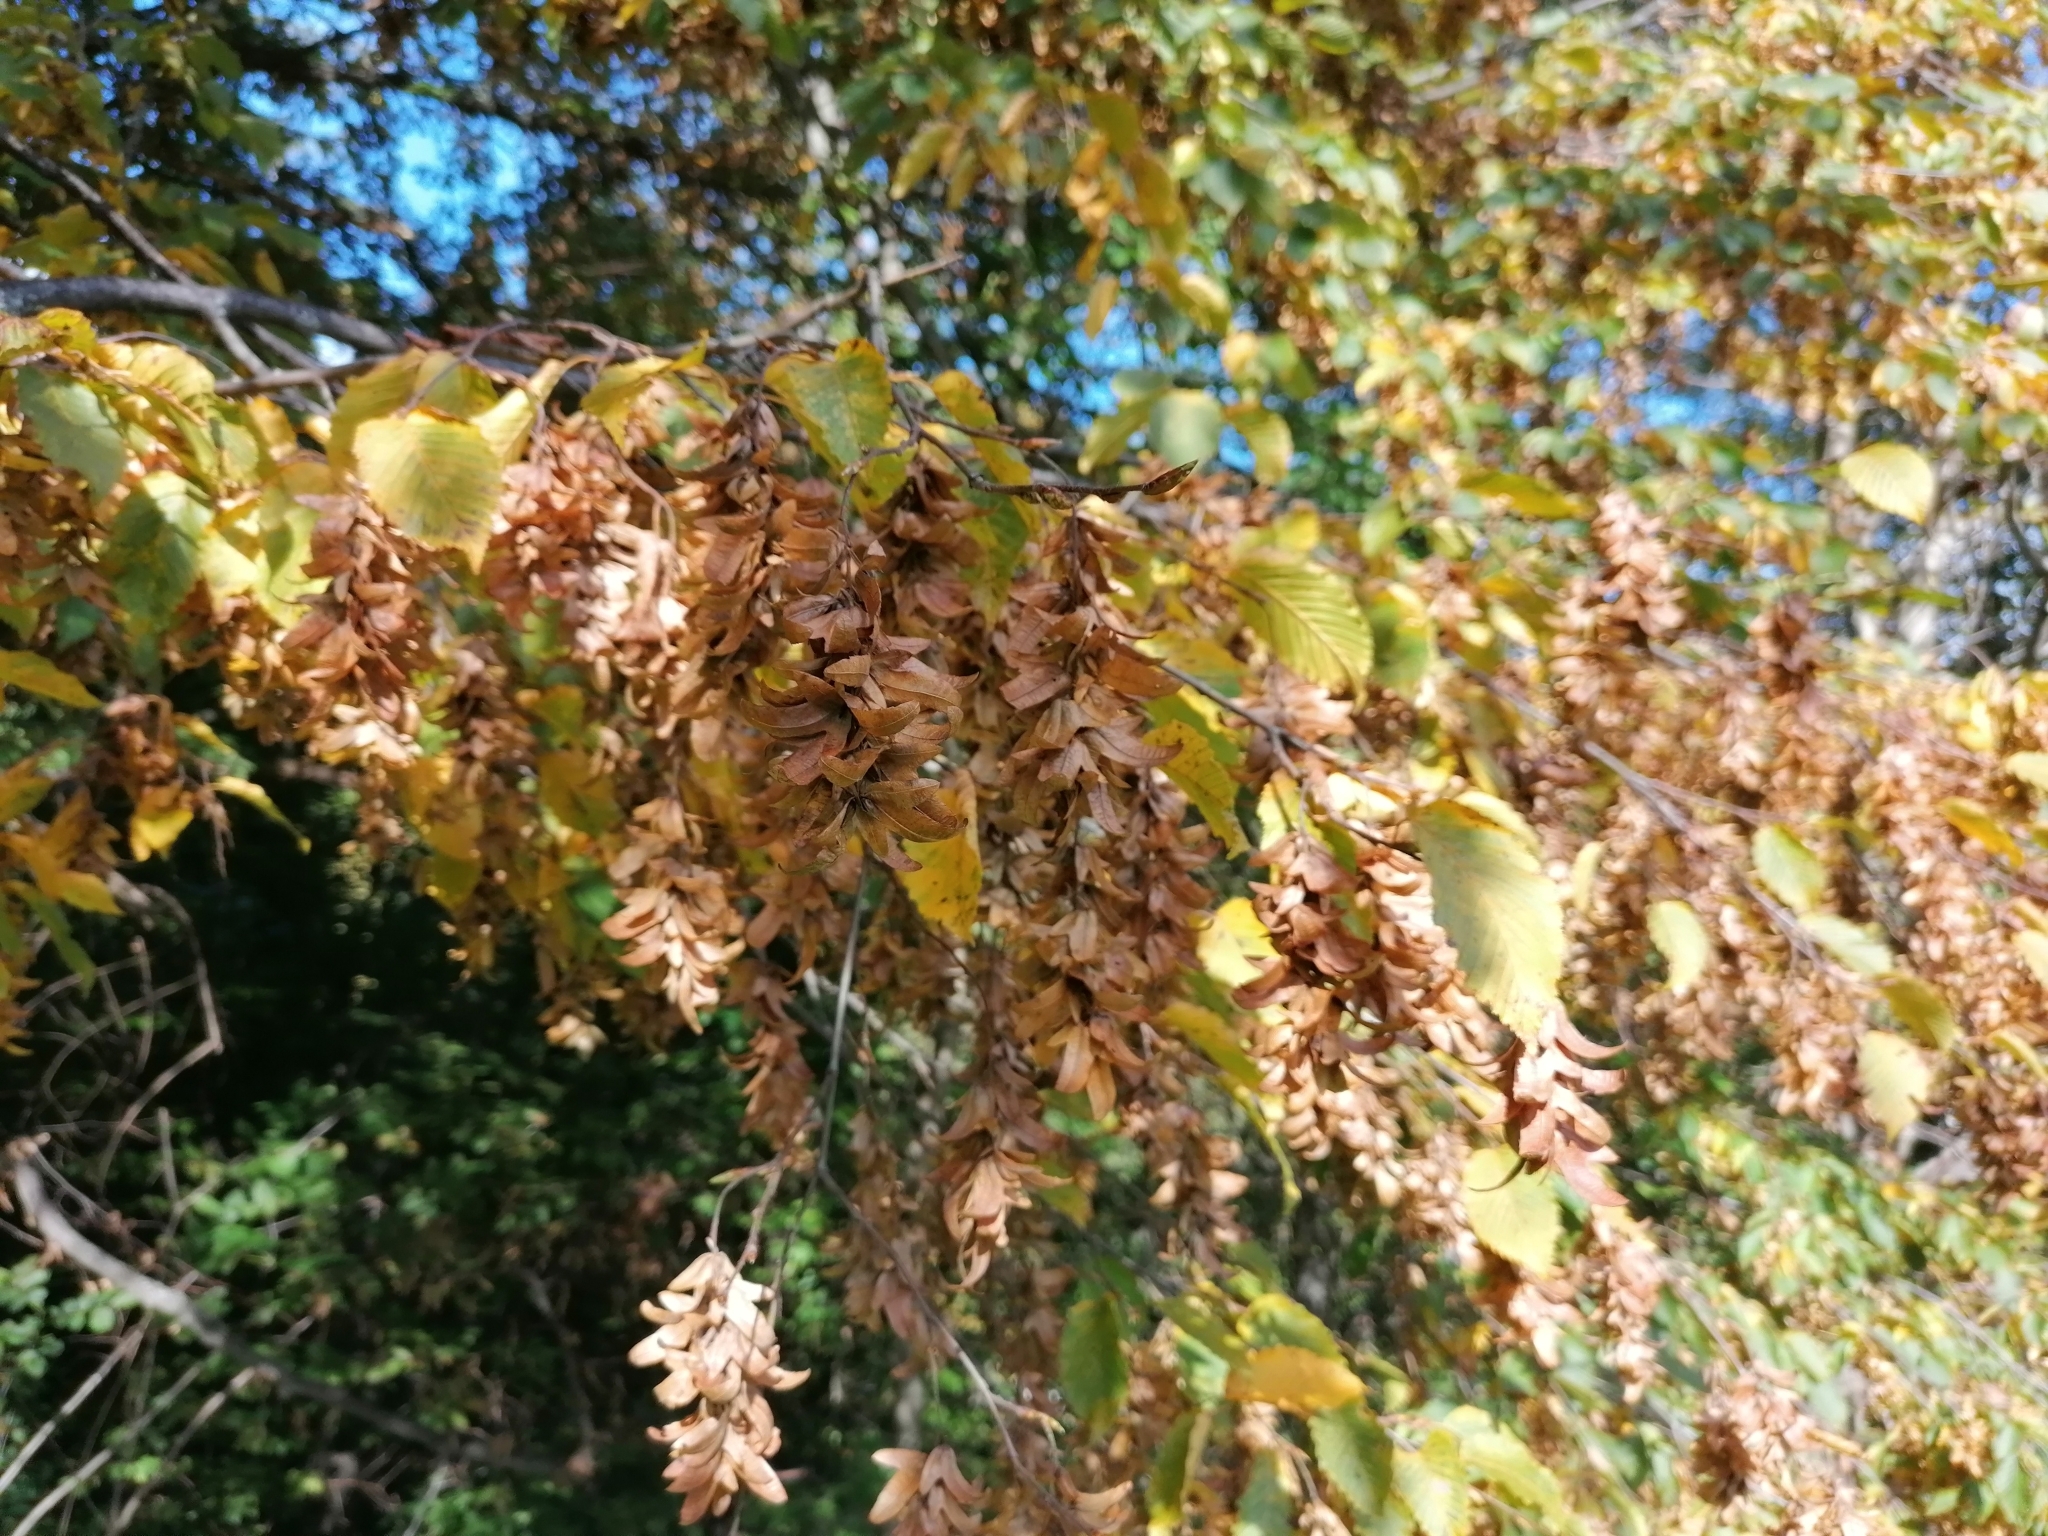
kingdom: Plantae
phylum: Tracheophyta
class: Magnoliopsida
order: Fagales
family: Betulaceae
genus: Carpinus
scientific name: Carpinus betulus
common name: Hornbeam
